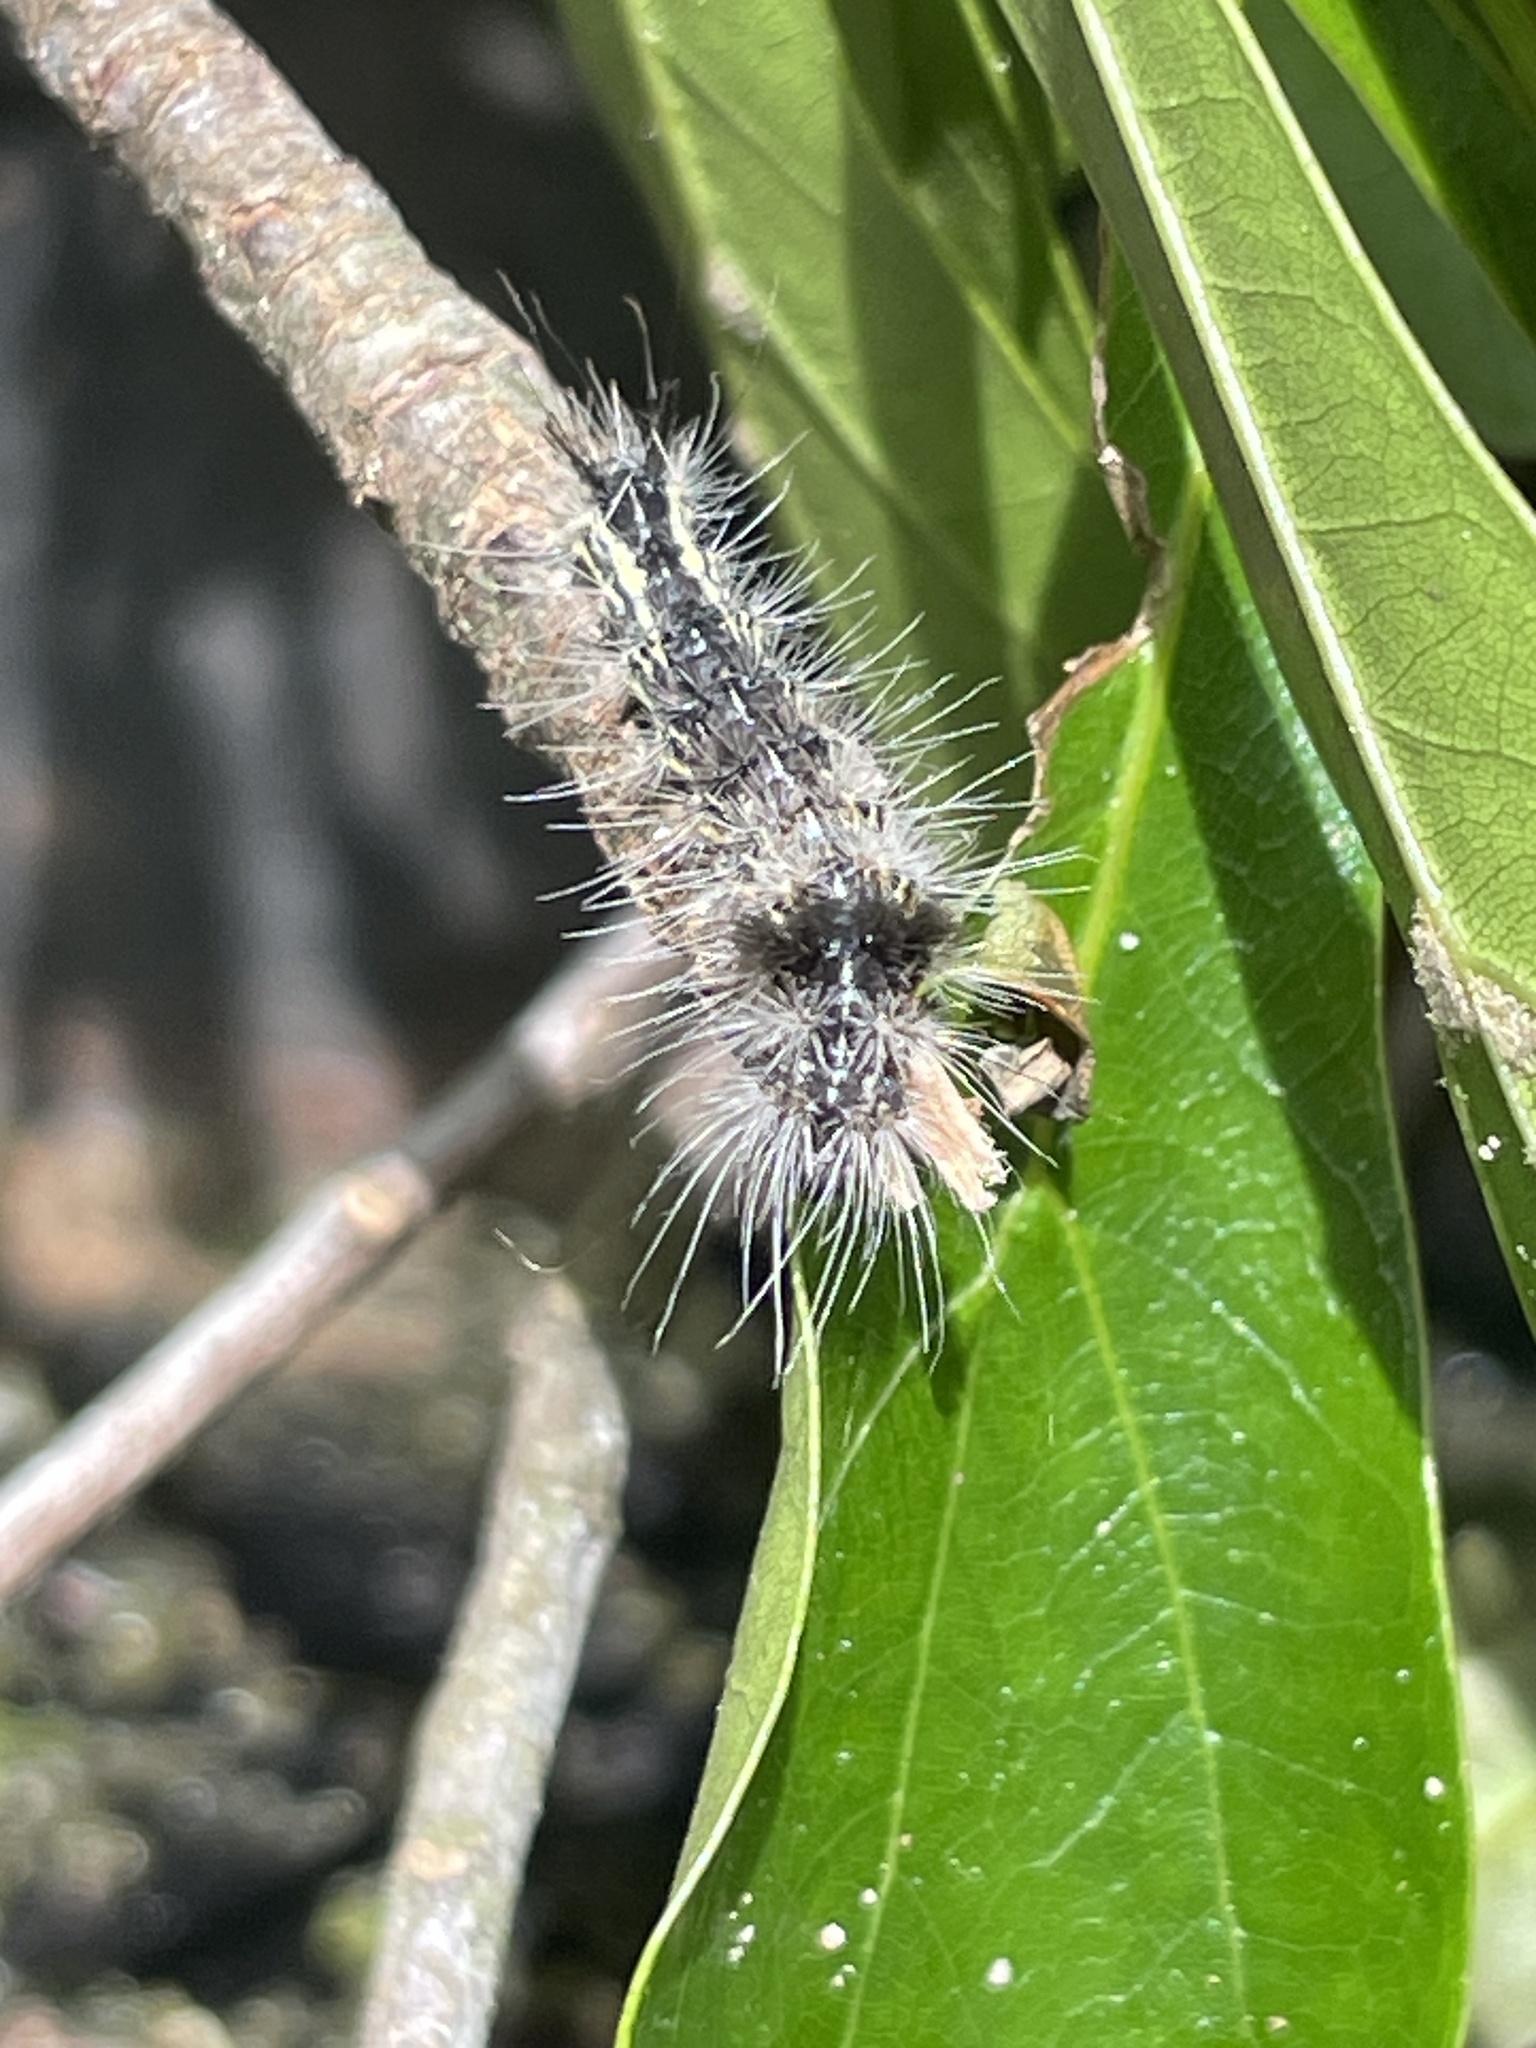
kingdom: Animalia
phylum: Arthropoda
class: Insecta
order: Lepidoptera
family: Noctuidae
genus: Acronicta
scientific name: Acronicta impleta
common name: Powdered dagger
